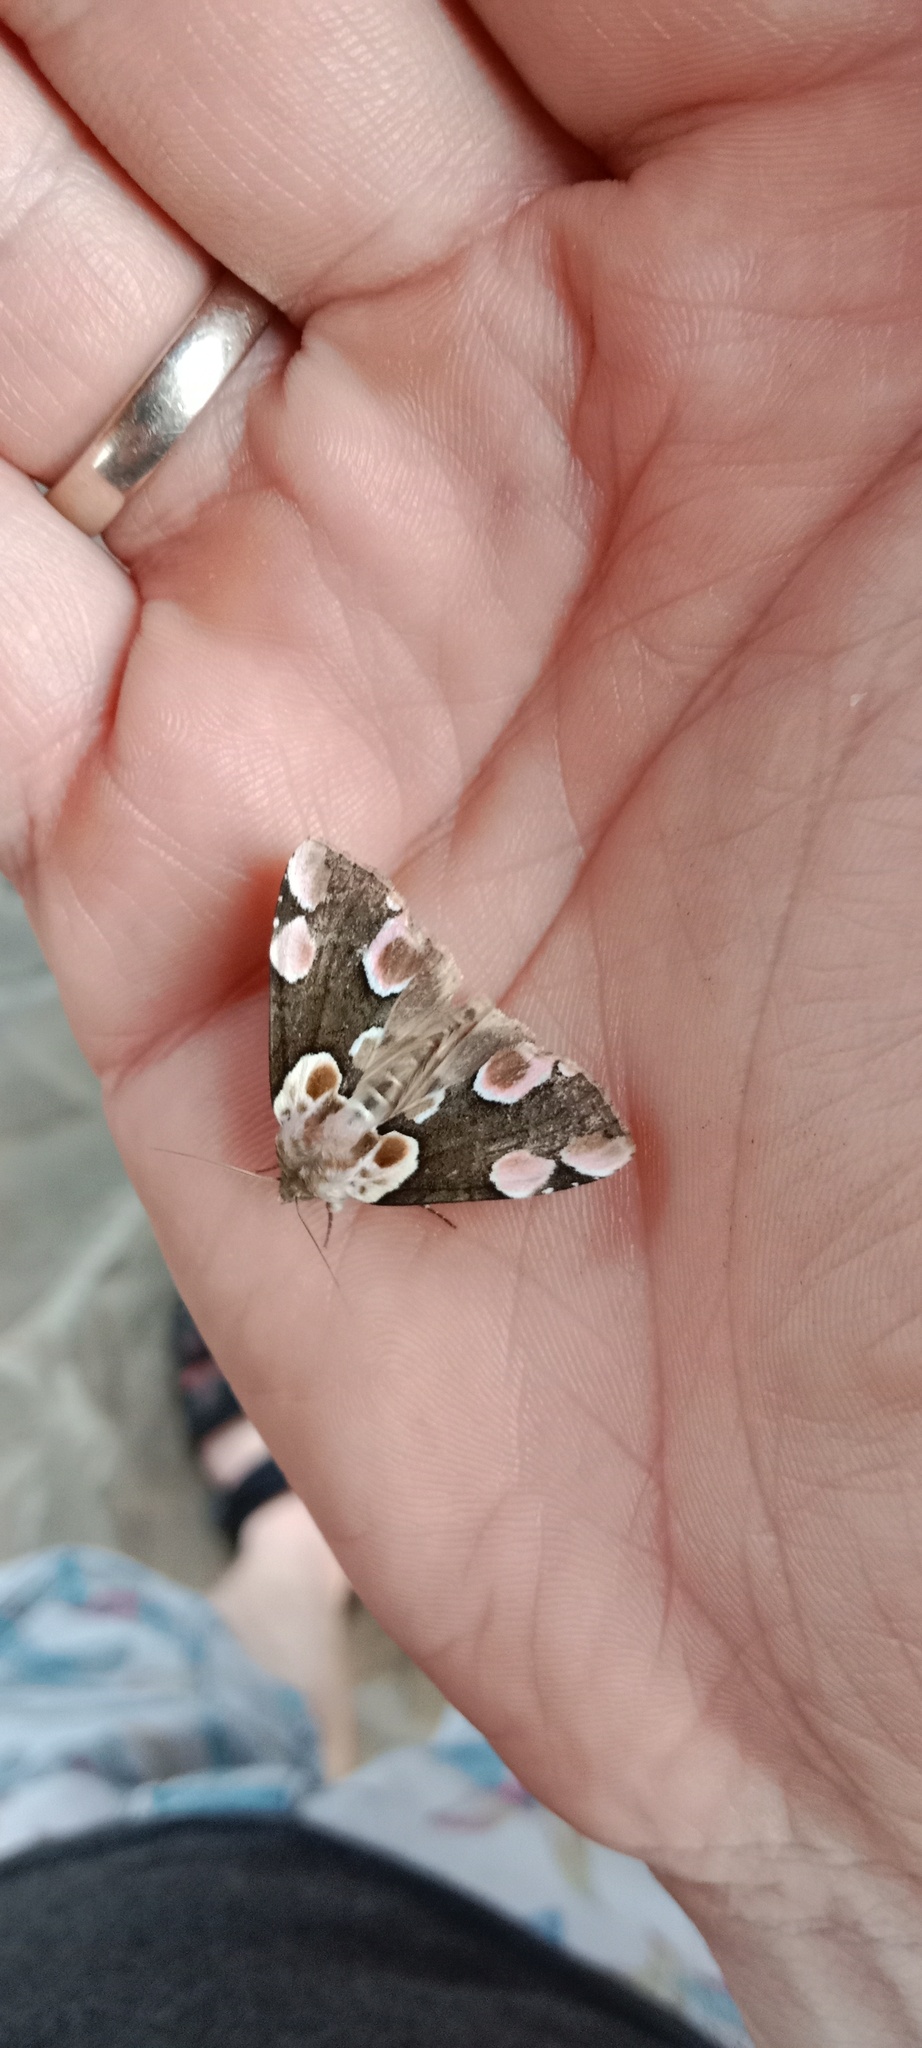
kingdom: Animalia
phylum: Arthropoda
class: Insecta
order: Lepidoptera
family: Drepanidae
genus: Thyatira
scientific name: Thyatira batis
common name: Peach blossom
